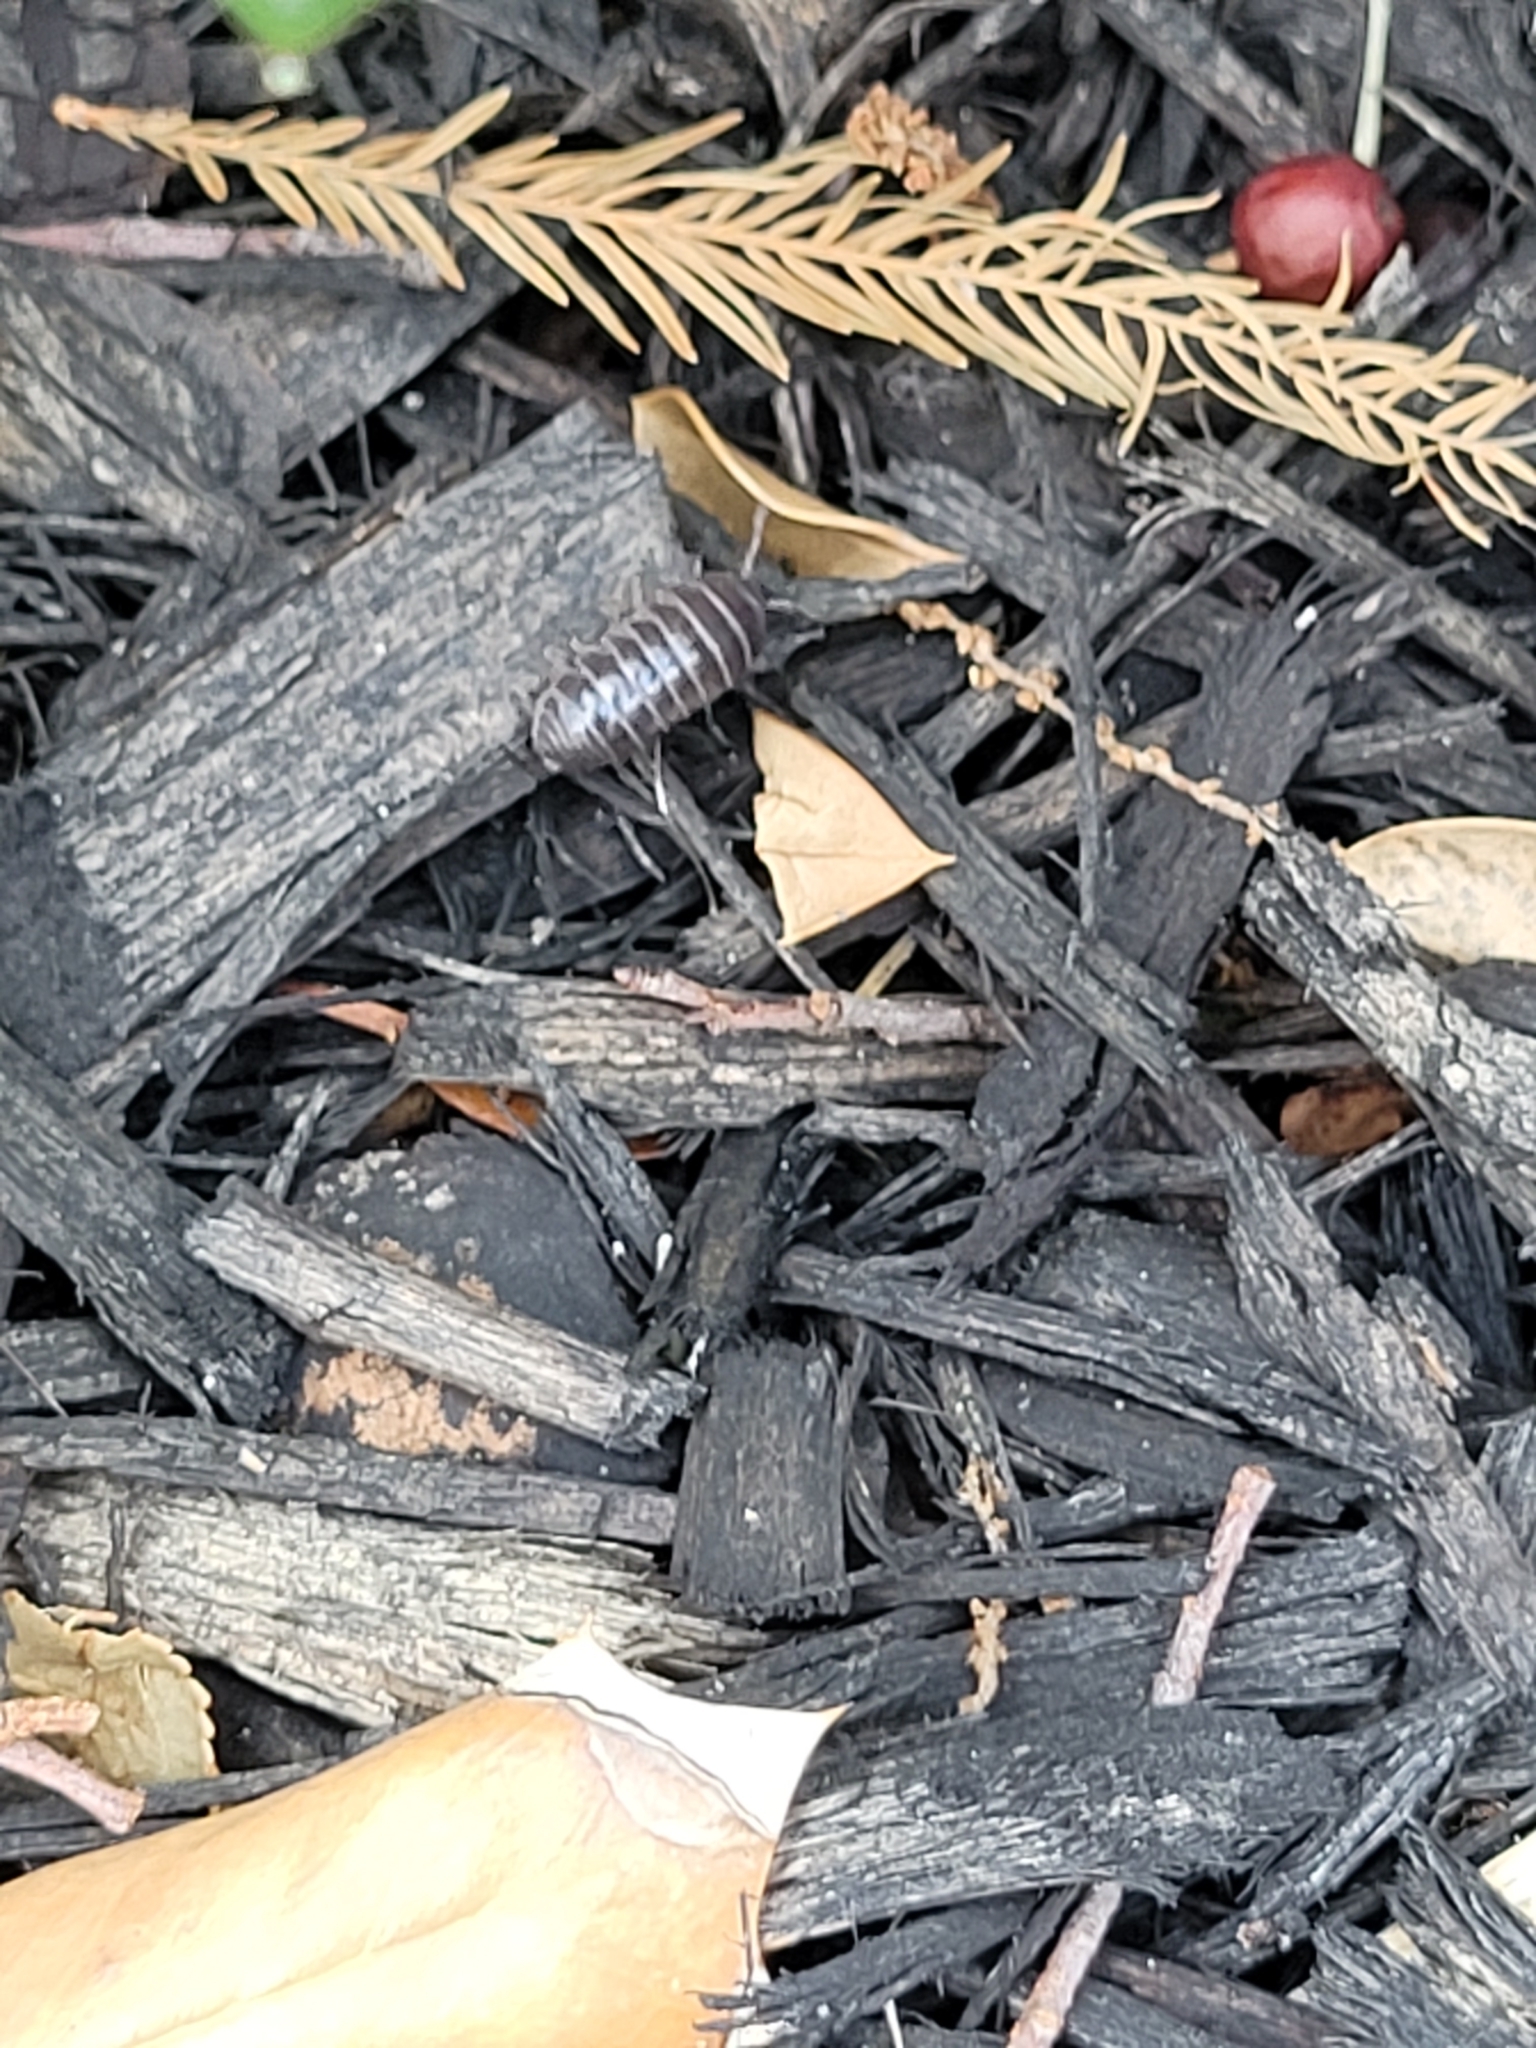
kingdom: Animalia
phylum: Arthropoda
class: Malacostraca
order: Isopoda
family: Armadillidiidae
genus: Armadillidium
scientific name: Armadillidium vulgare
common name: Common pill woodlouse
